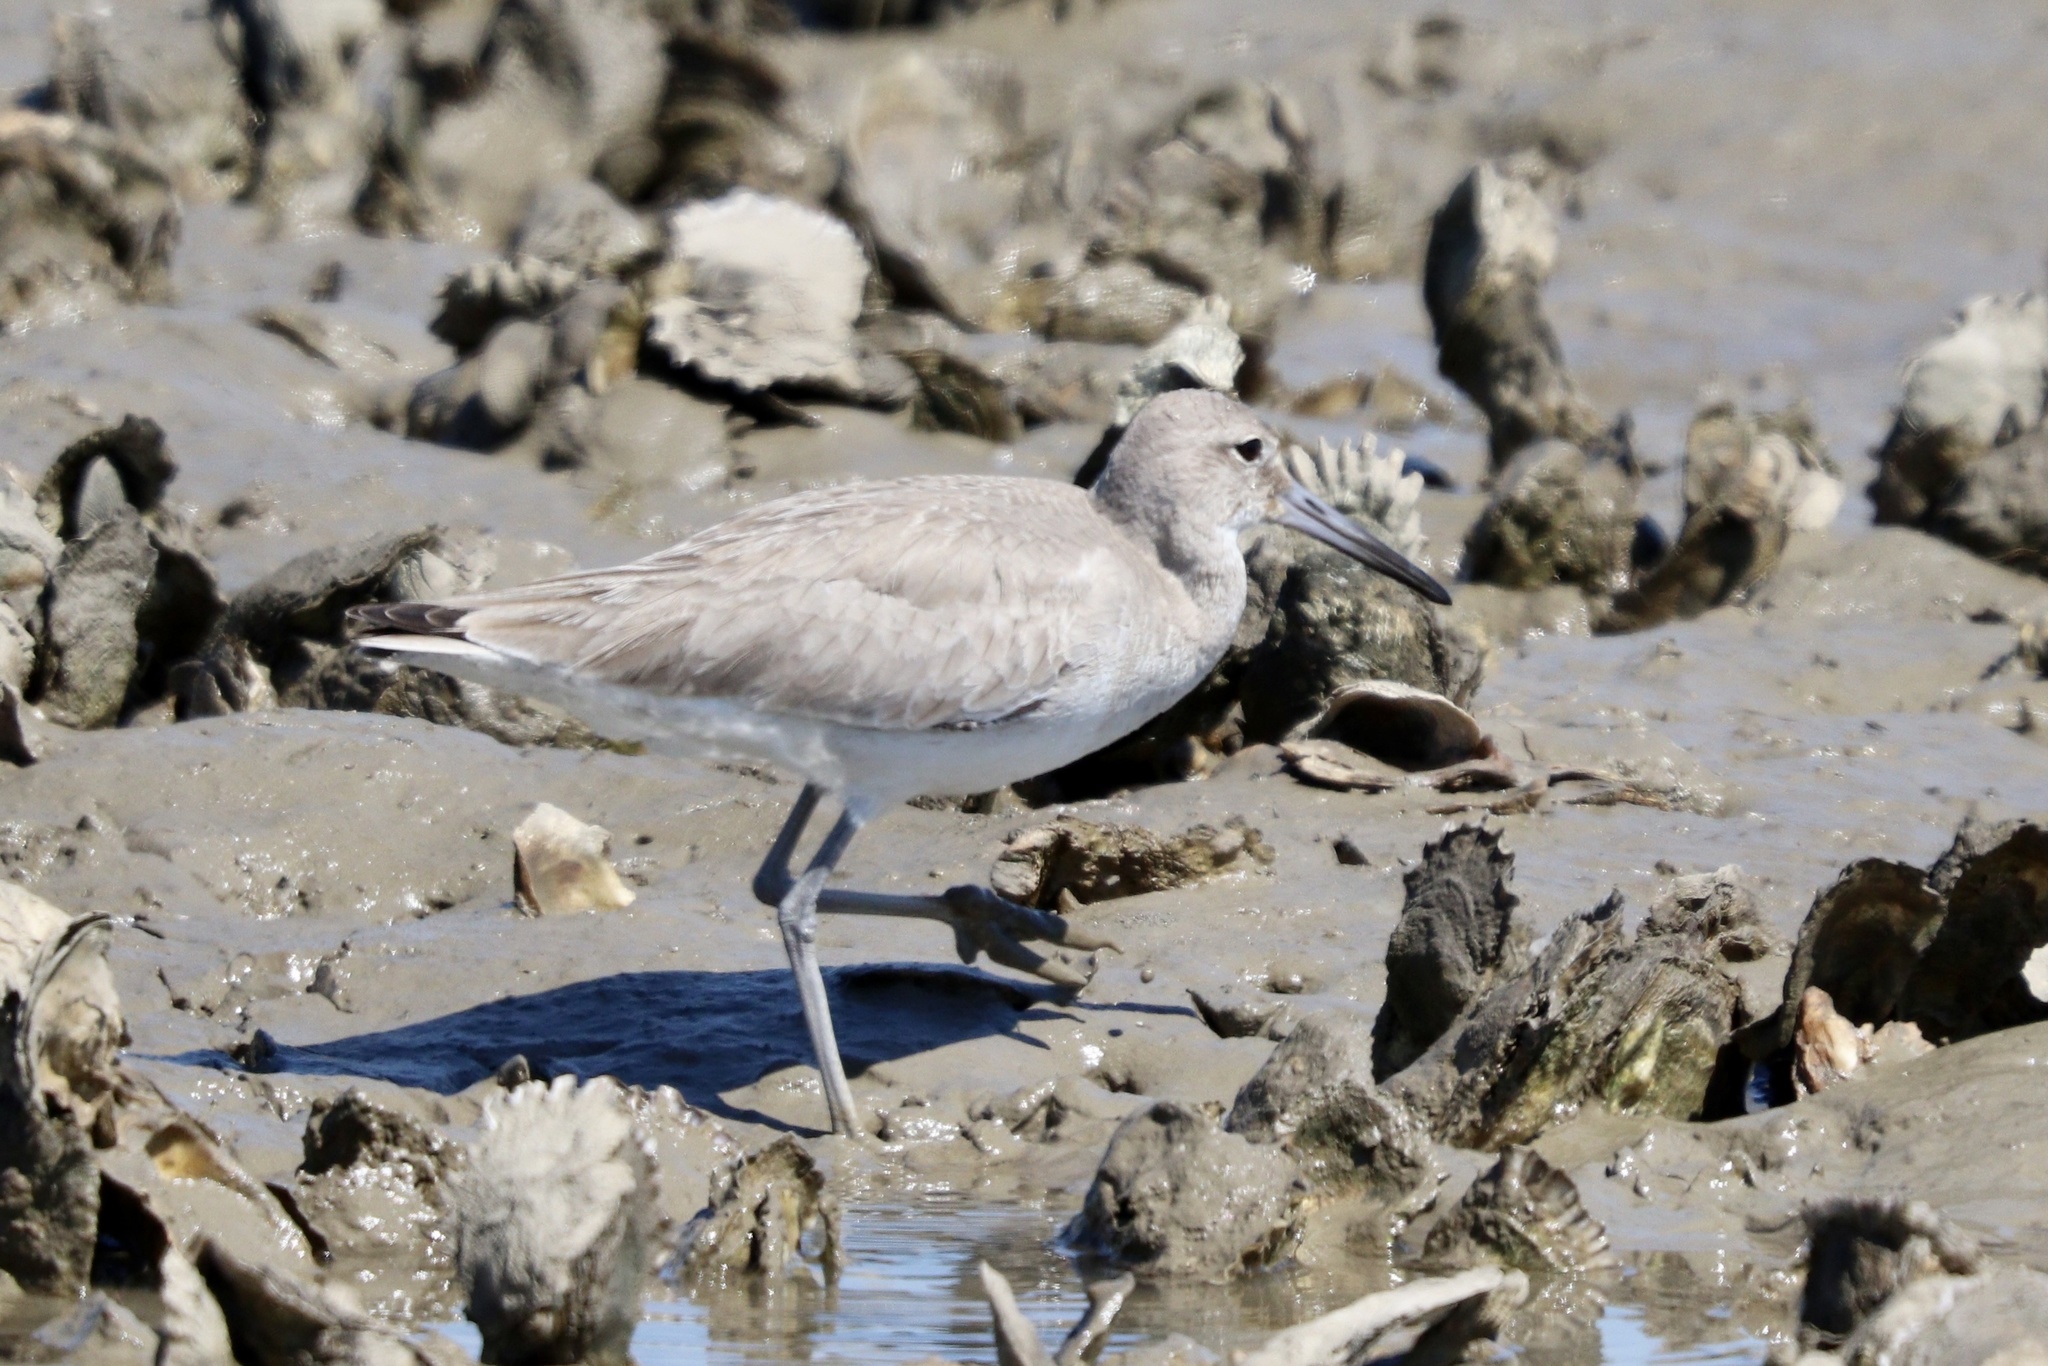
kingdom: Animalia
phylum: Chordata
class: Aves
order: Charadriiformes
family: Scolopacidae
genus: Tringa
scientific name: Tringa semipalmata
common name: Willet
